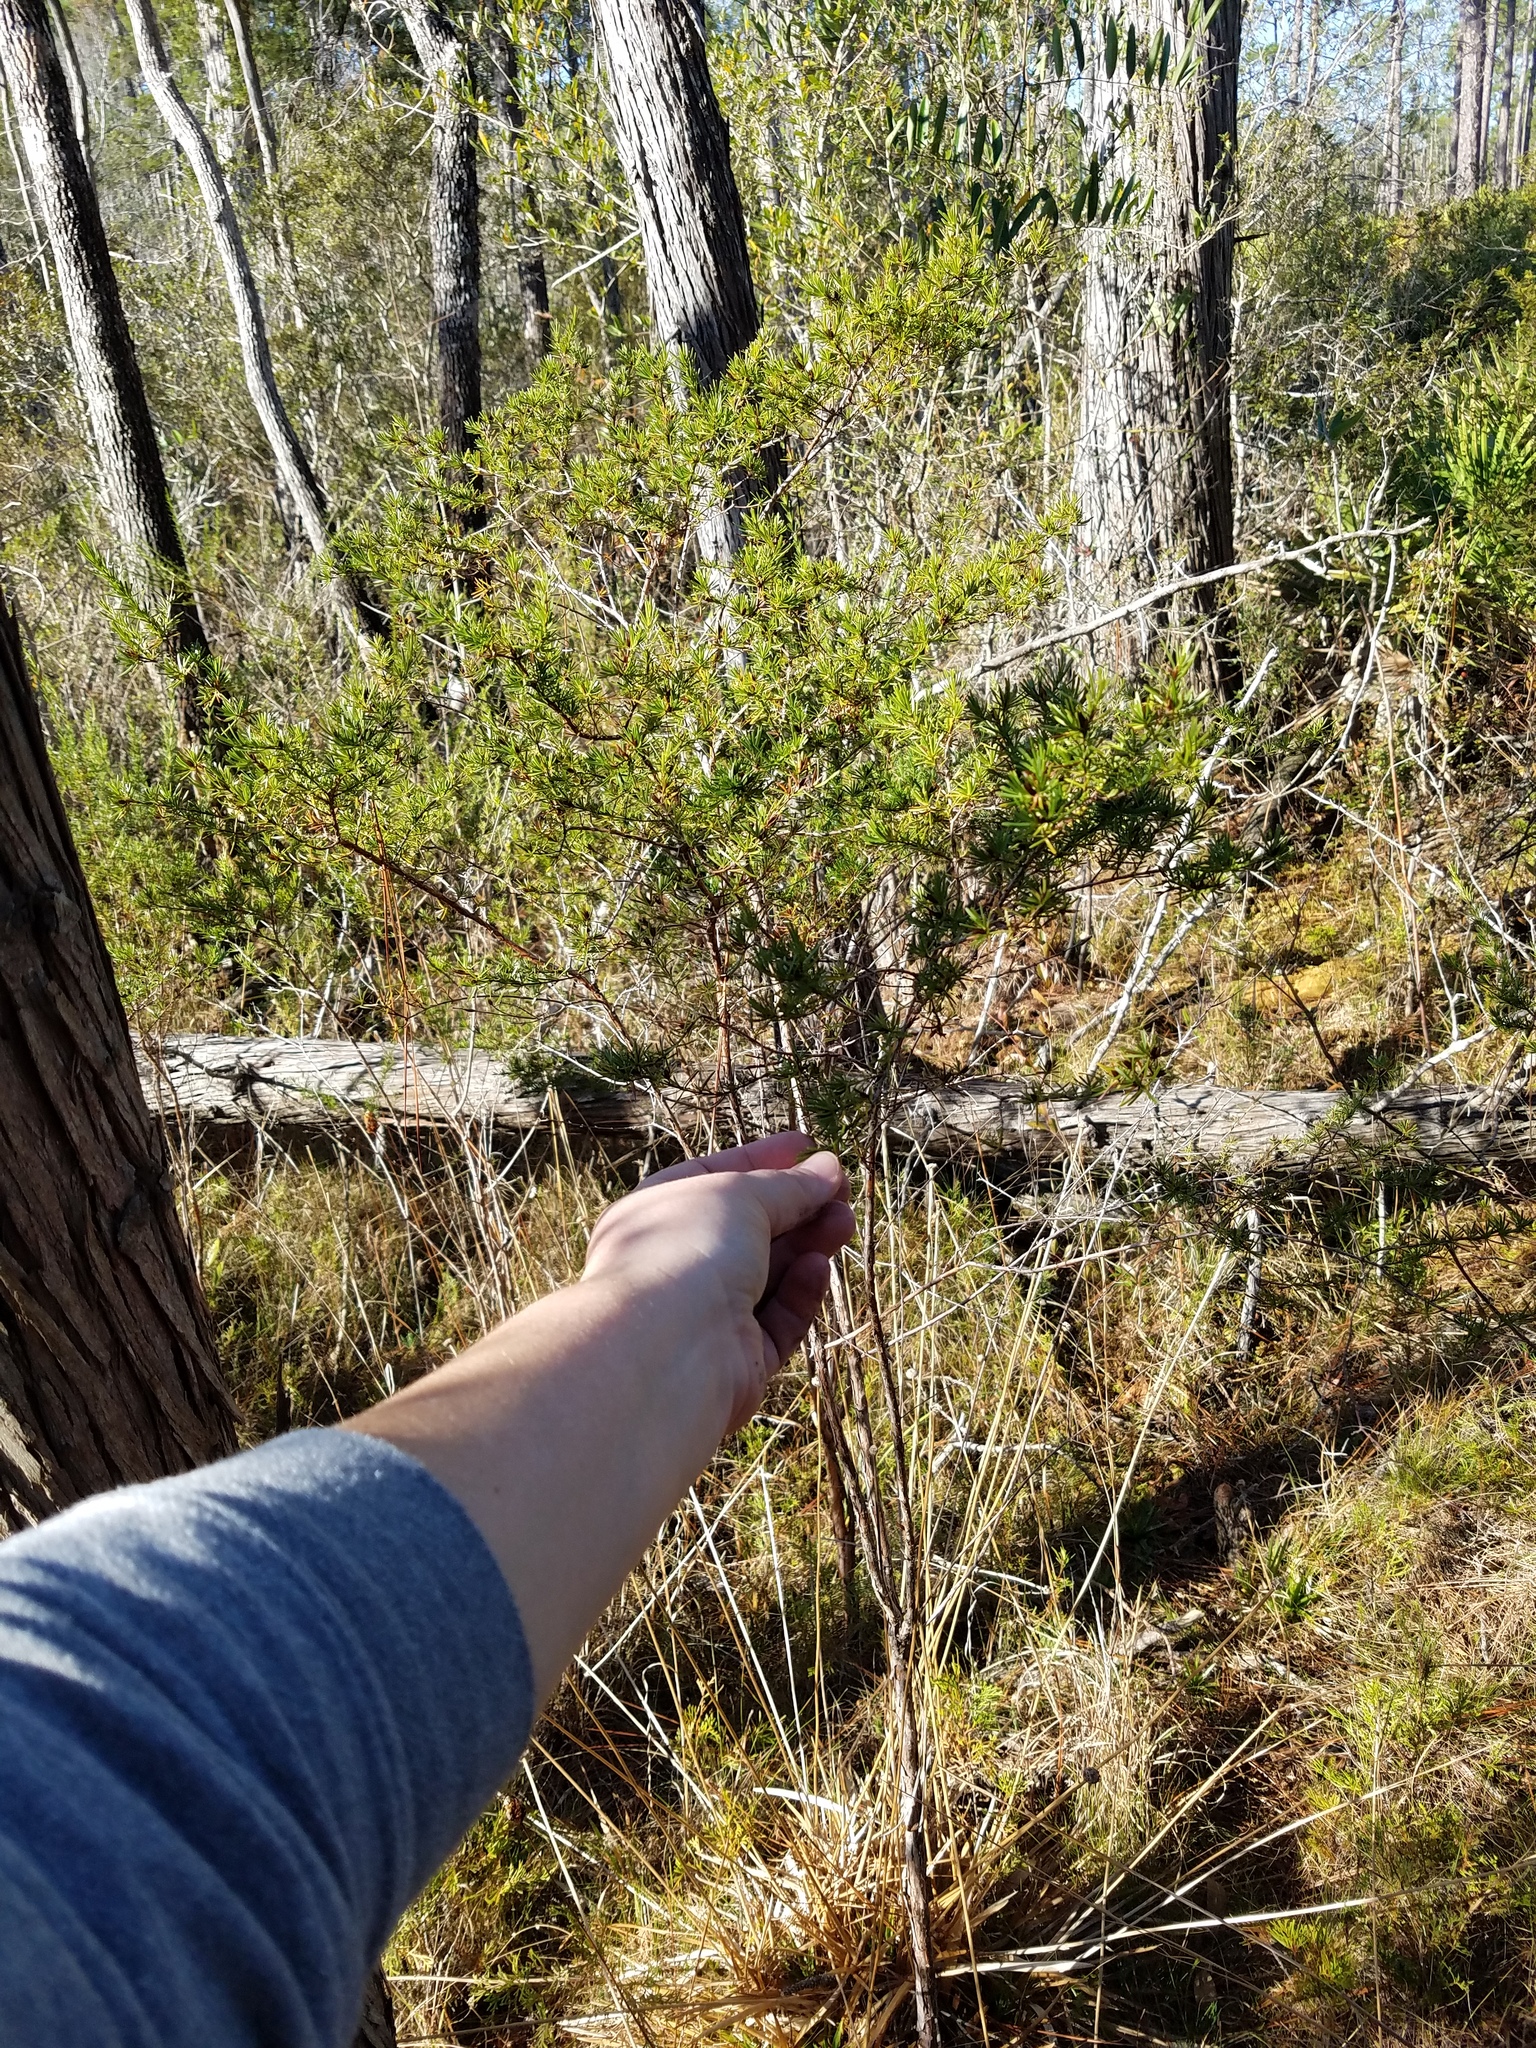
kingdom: Plantae
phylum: Tracheophyta
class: Magnoliopsida
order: Malpighiales
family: Hypericaceae
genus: Hypericum
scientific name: Hypericum fasciculatum
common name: Peelbark st. john's wort
